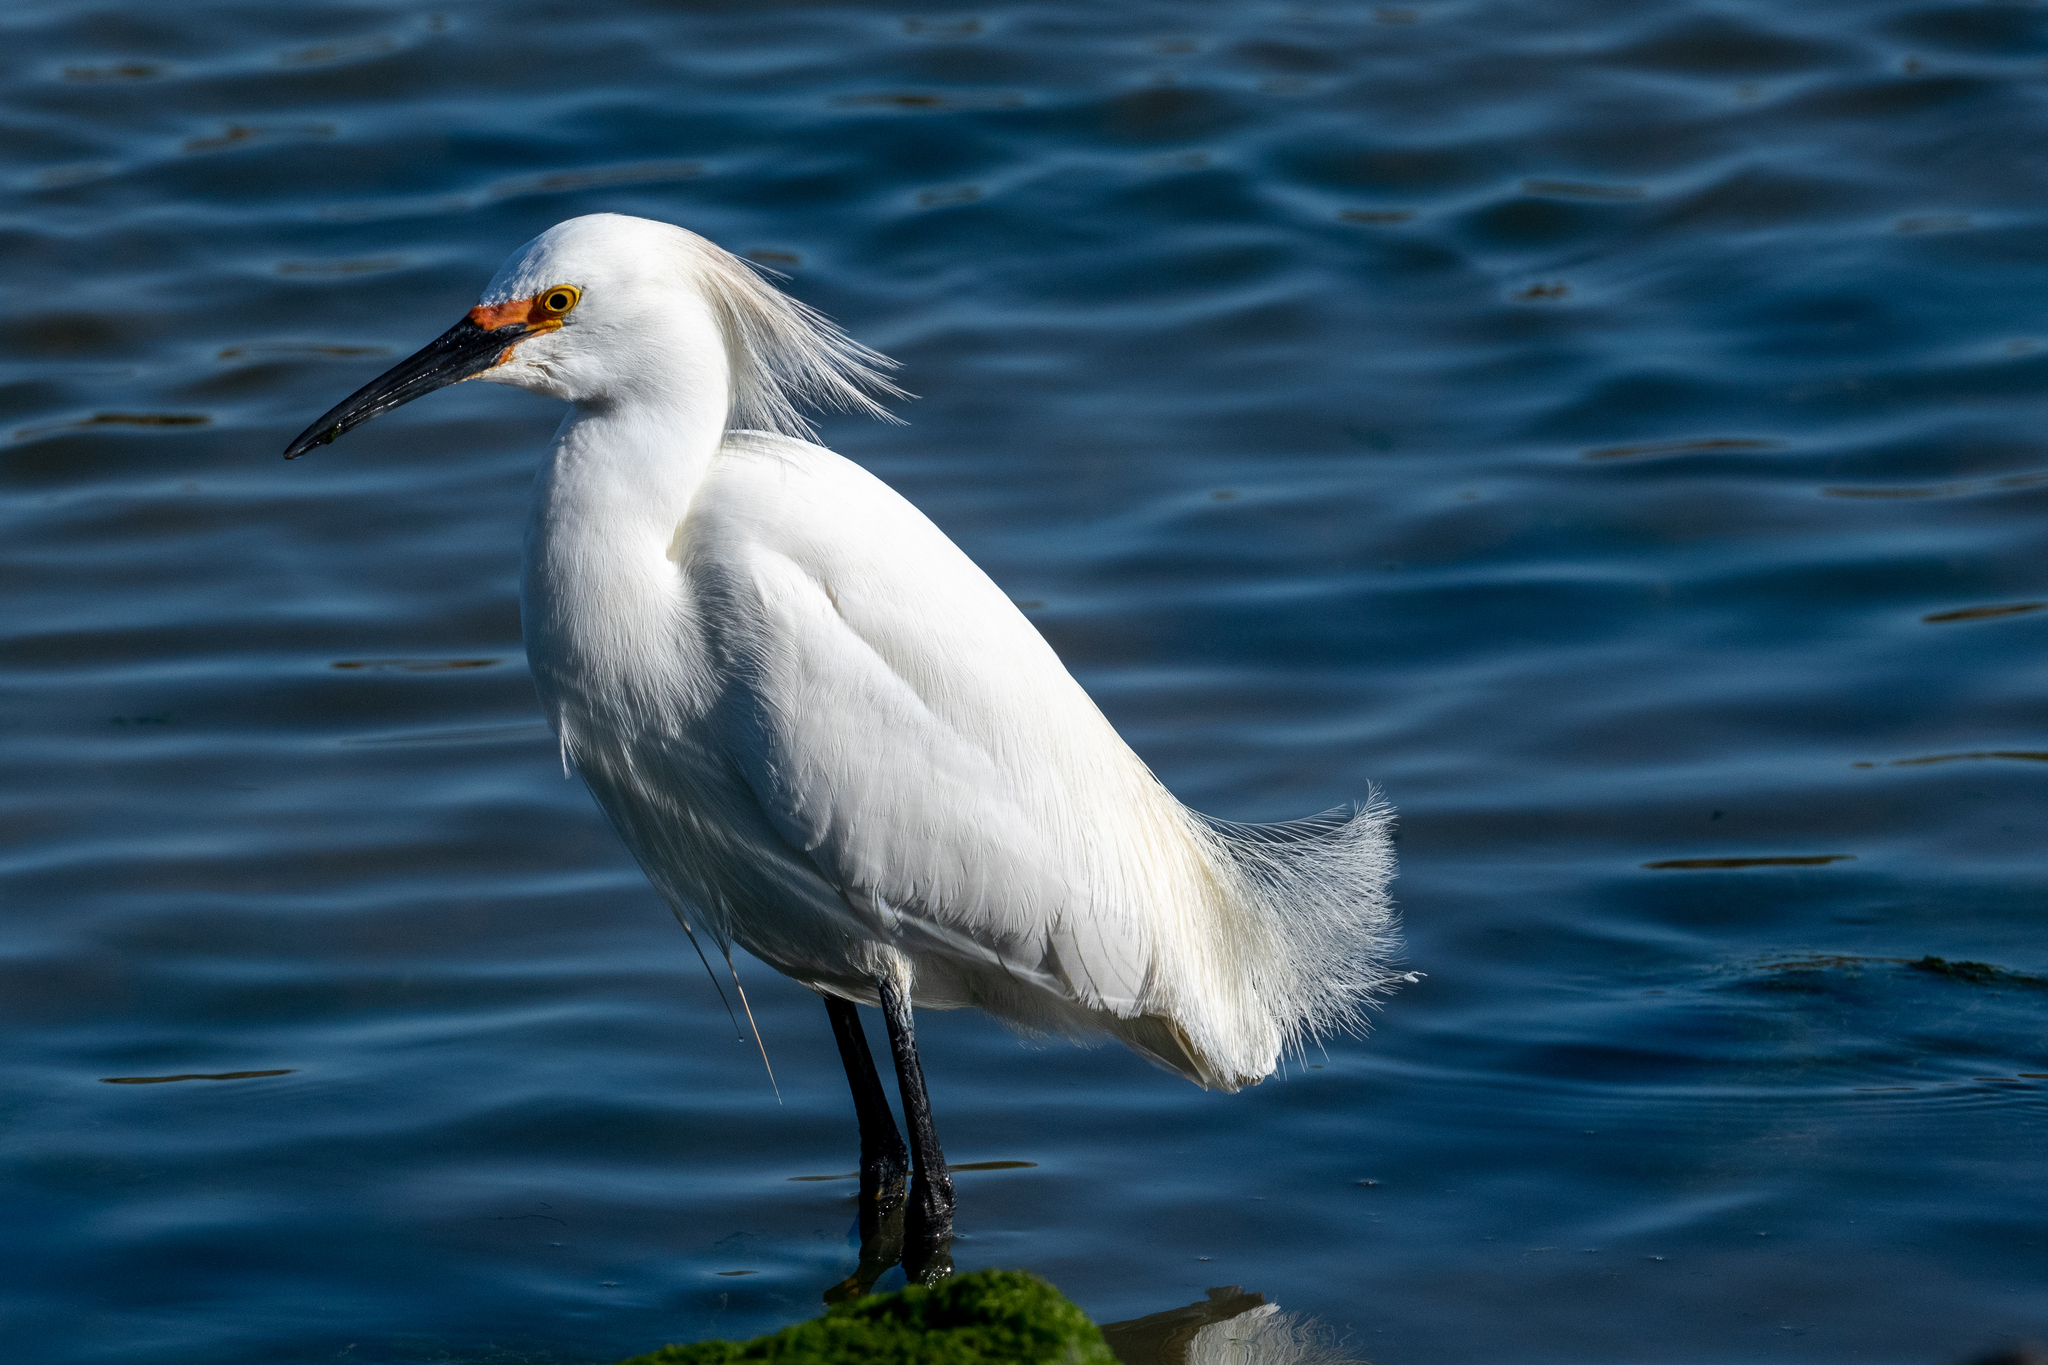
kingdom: Animalia
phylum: Chordata
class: Aves
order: Pelecaniformes
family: Ardeidae
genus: Egretta
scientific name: Egretta thula
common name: Snowy egret
